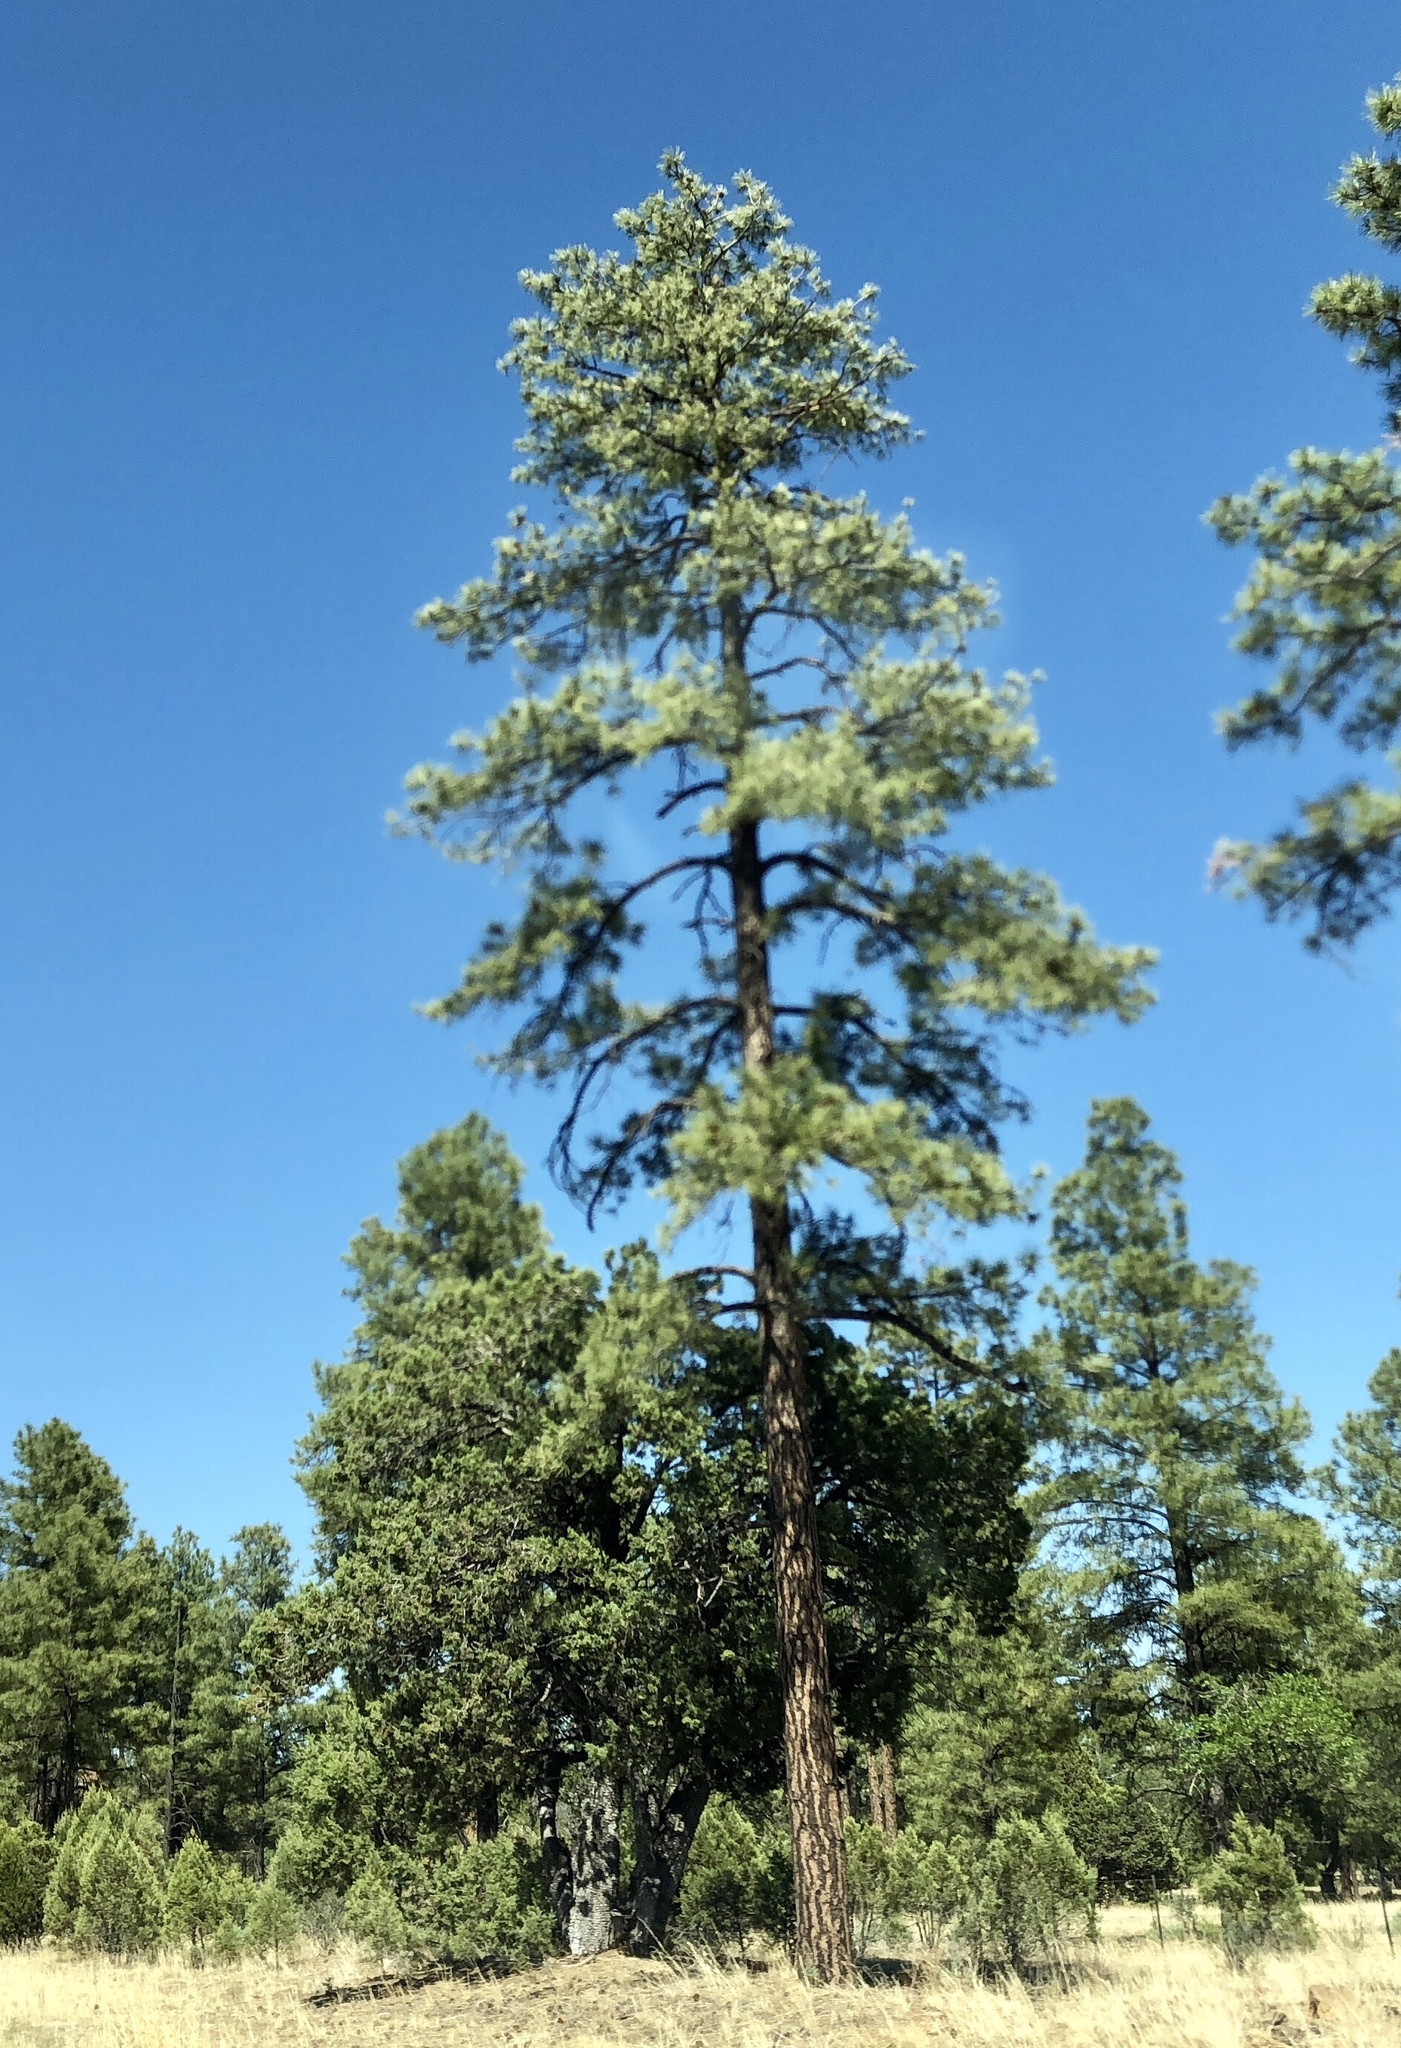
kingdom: Plantae
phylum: Tracheophyta
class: Pinopsida
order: Pinales
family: Pinaceae
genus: Pinus
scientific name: Pinus ponderosa
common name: Western yellow-pine
